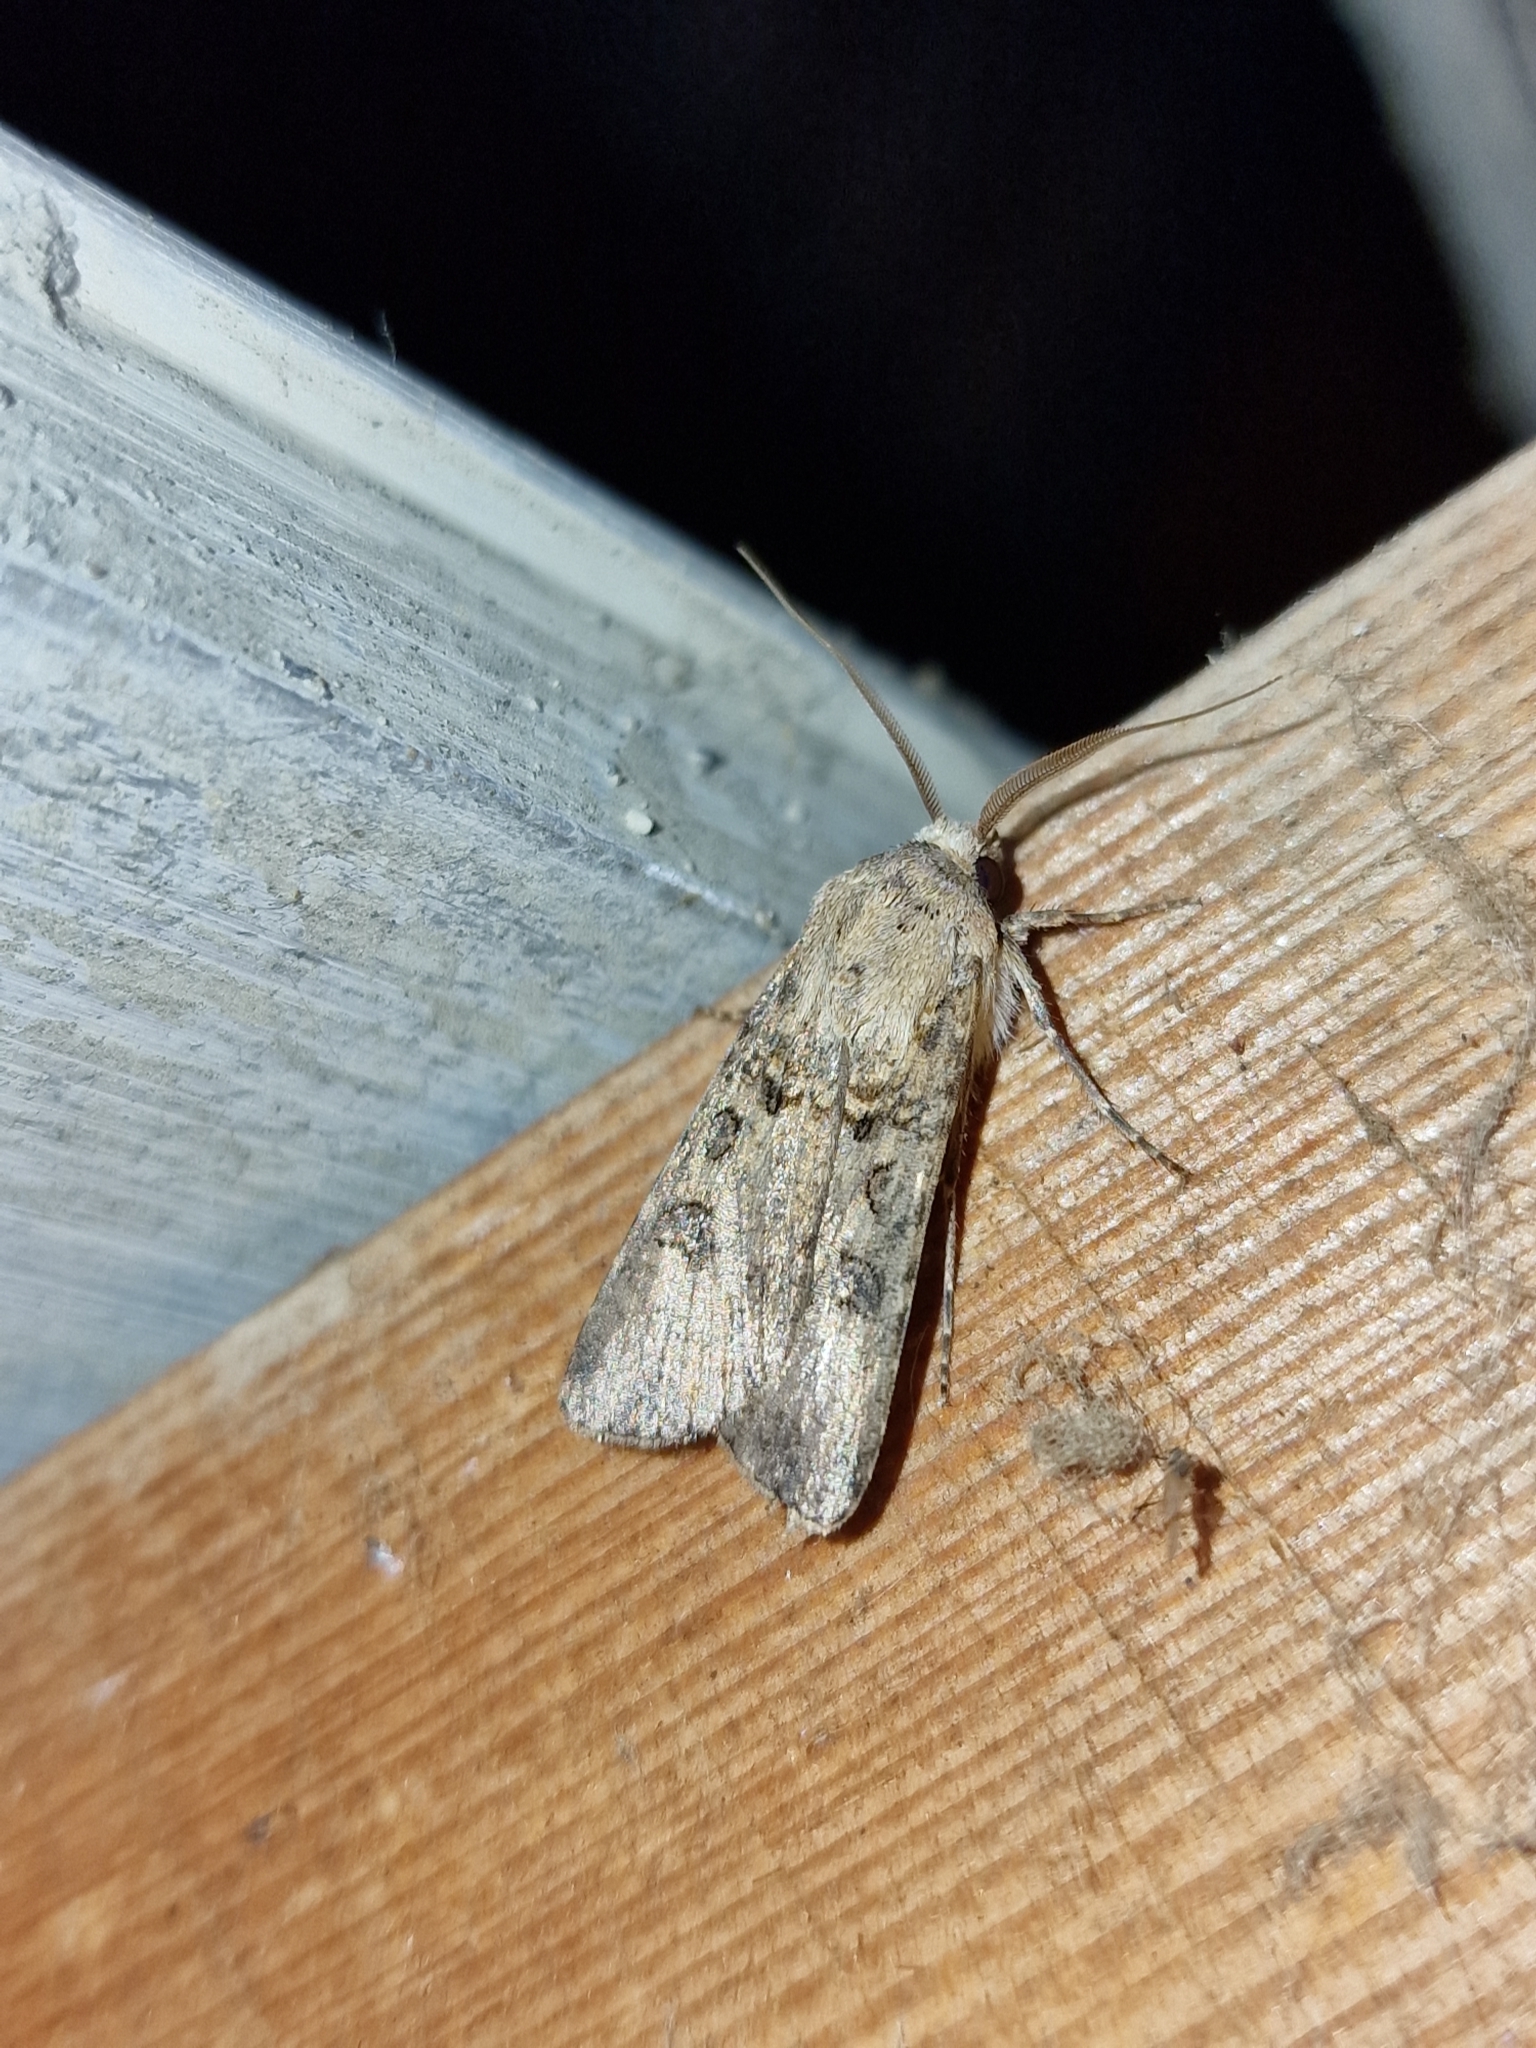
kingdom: Animalia
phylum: Arthropoda
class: Insecta
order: Lepidoptera
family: Noctuidae
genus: Agrotis
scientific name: Agrotis segetum
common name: Turnip moth
